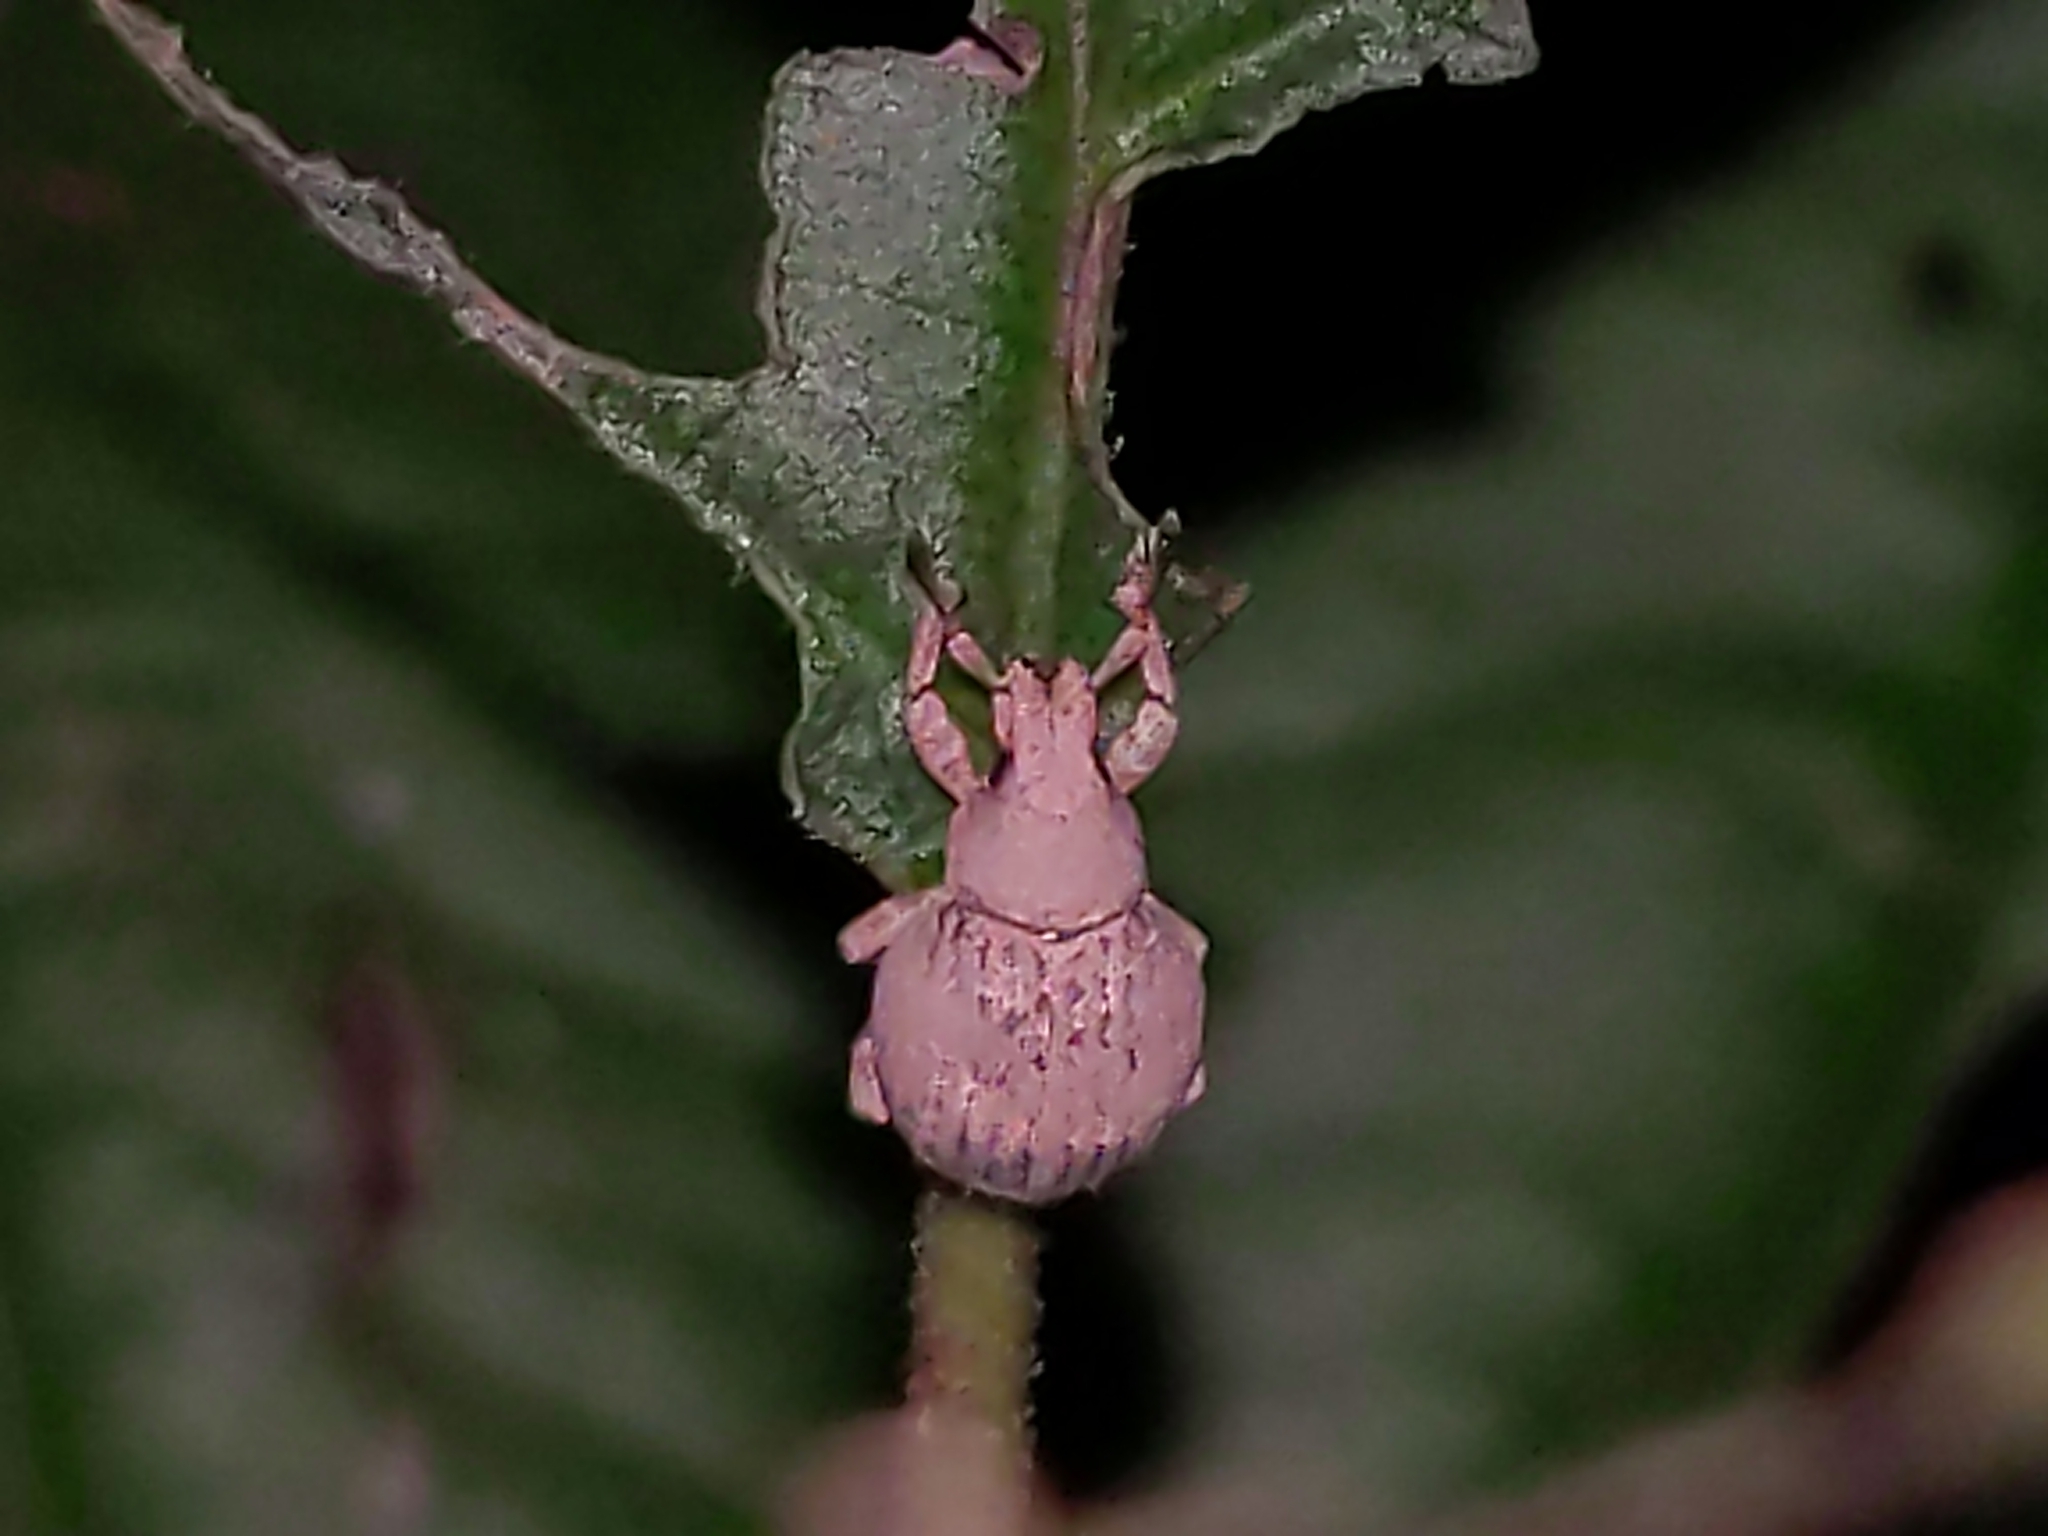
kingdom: Animalia
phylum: Arthropoda
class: Insecta
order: Coleoptera
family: Curculionidae
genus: Pseudocneorhinus
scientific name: Pseudocneorhinus bifasciatus
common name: Two-banded japanese weevil
